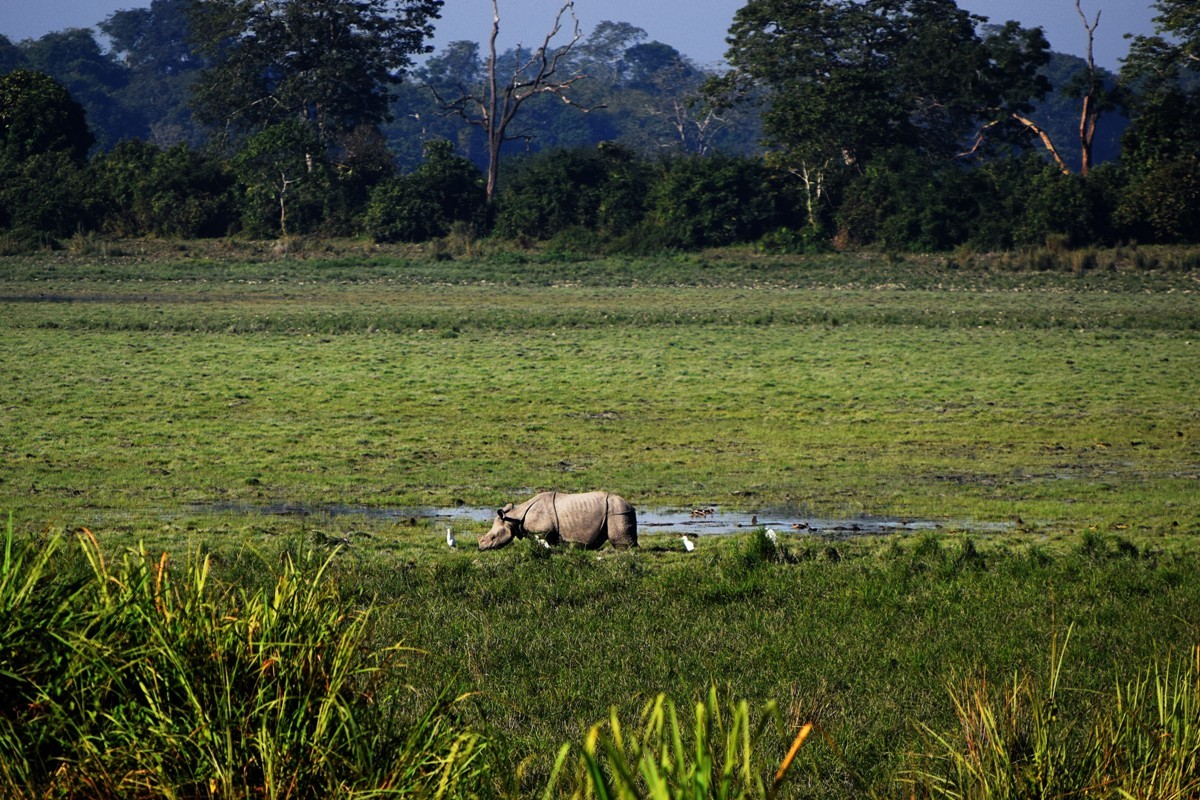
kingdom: Animalia
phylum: Chordata
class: Mammalia
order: Perissodactyla
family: Rhinocerotidae
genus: Rhinoceros
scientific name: Rhinoceros unicornis
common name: Indian rhinoceros
